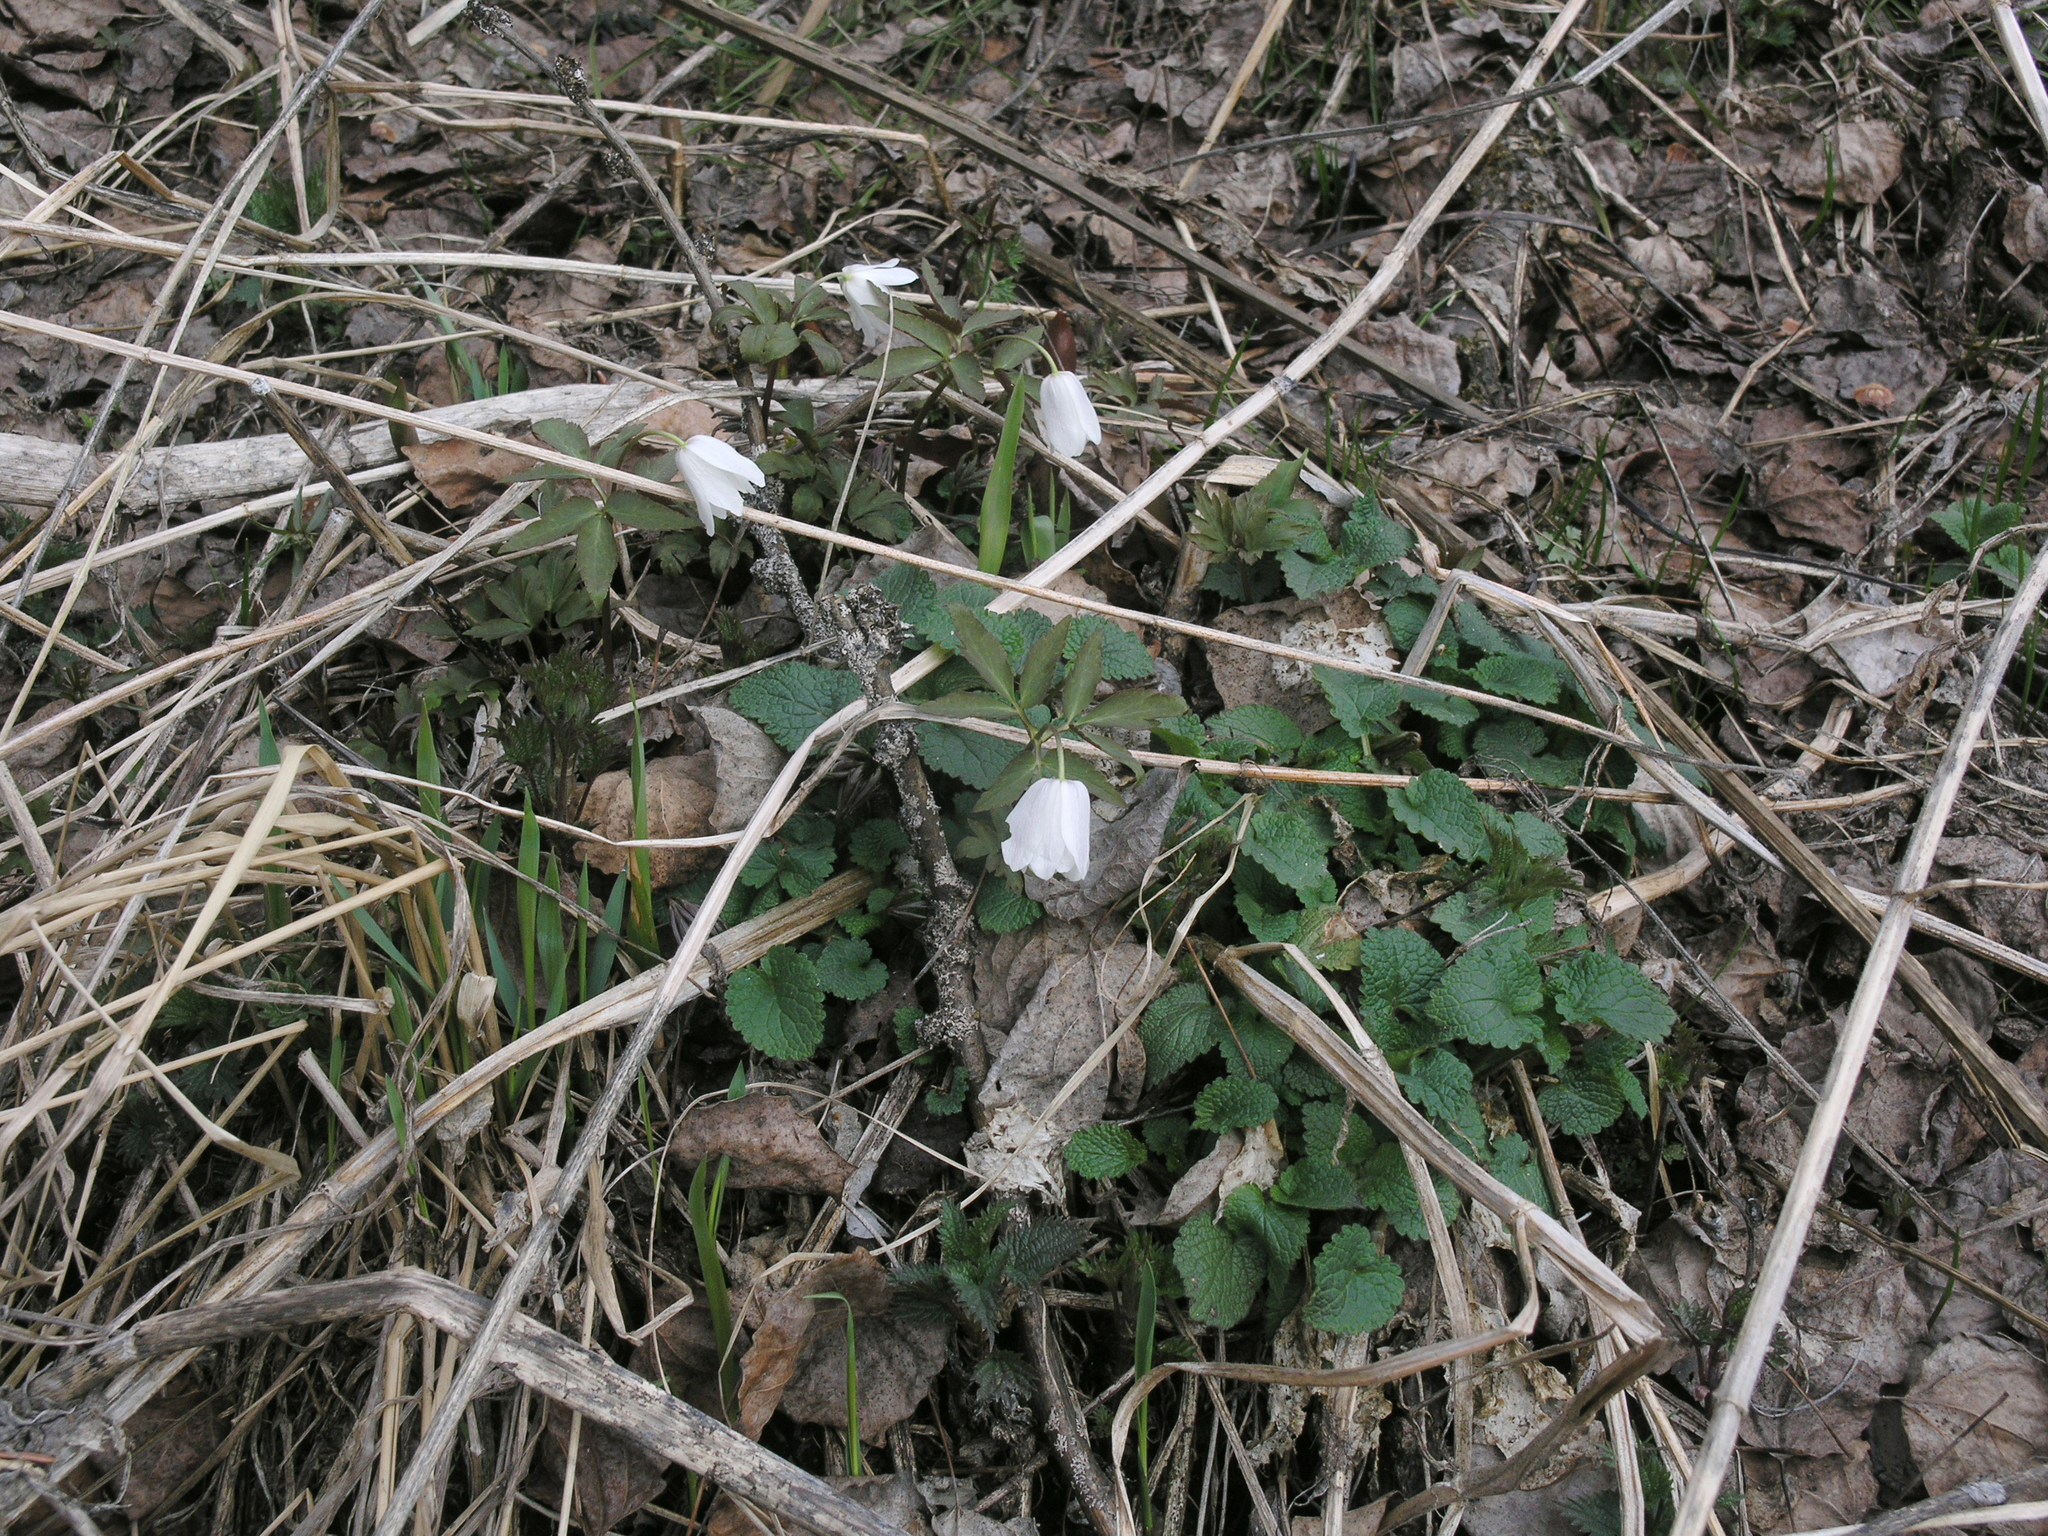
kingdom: Plantae
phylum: Tracheophyta
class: Magnoliopsida
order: Ranunculales
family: Ranunculaceae
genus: Anemone
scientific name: Anemone altaica
